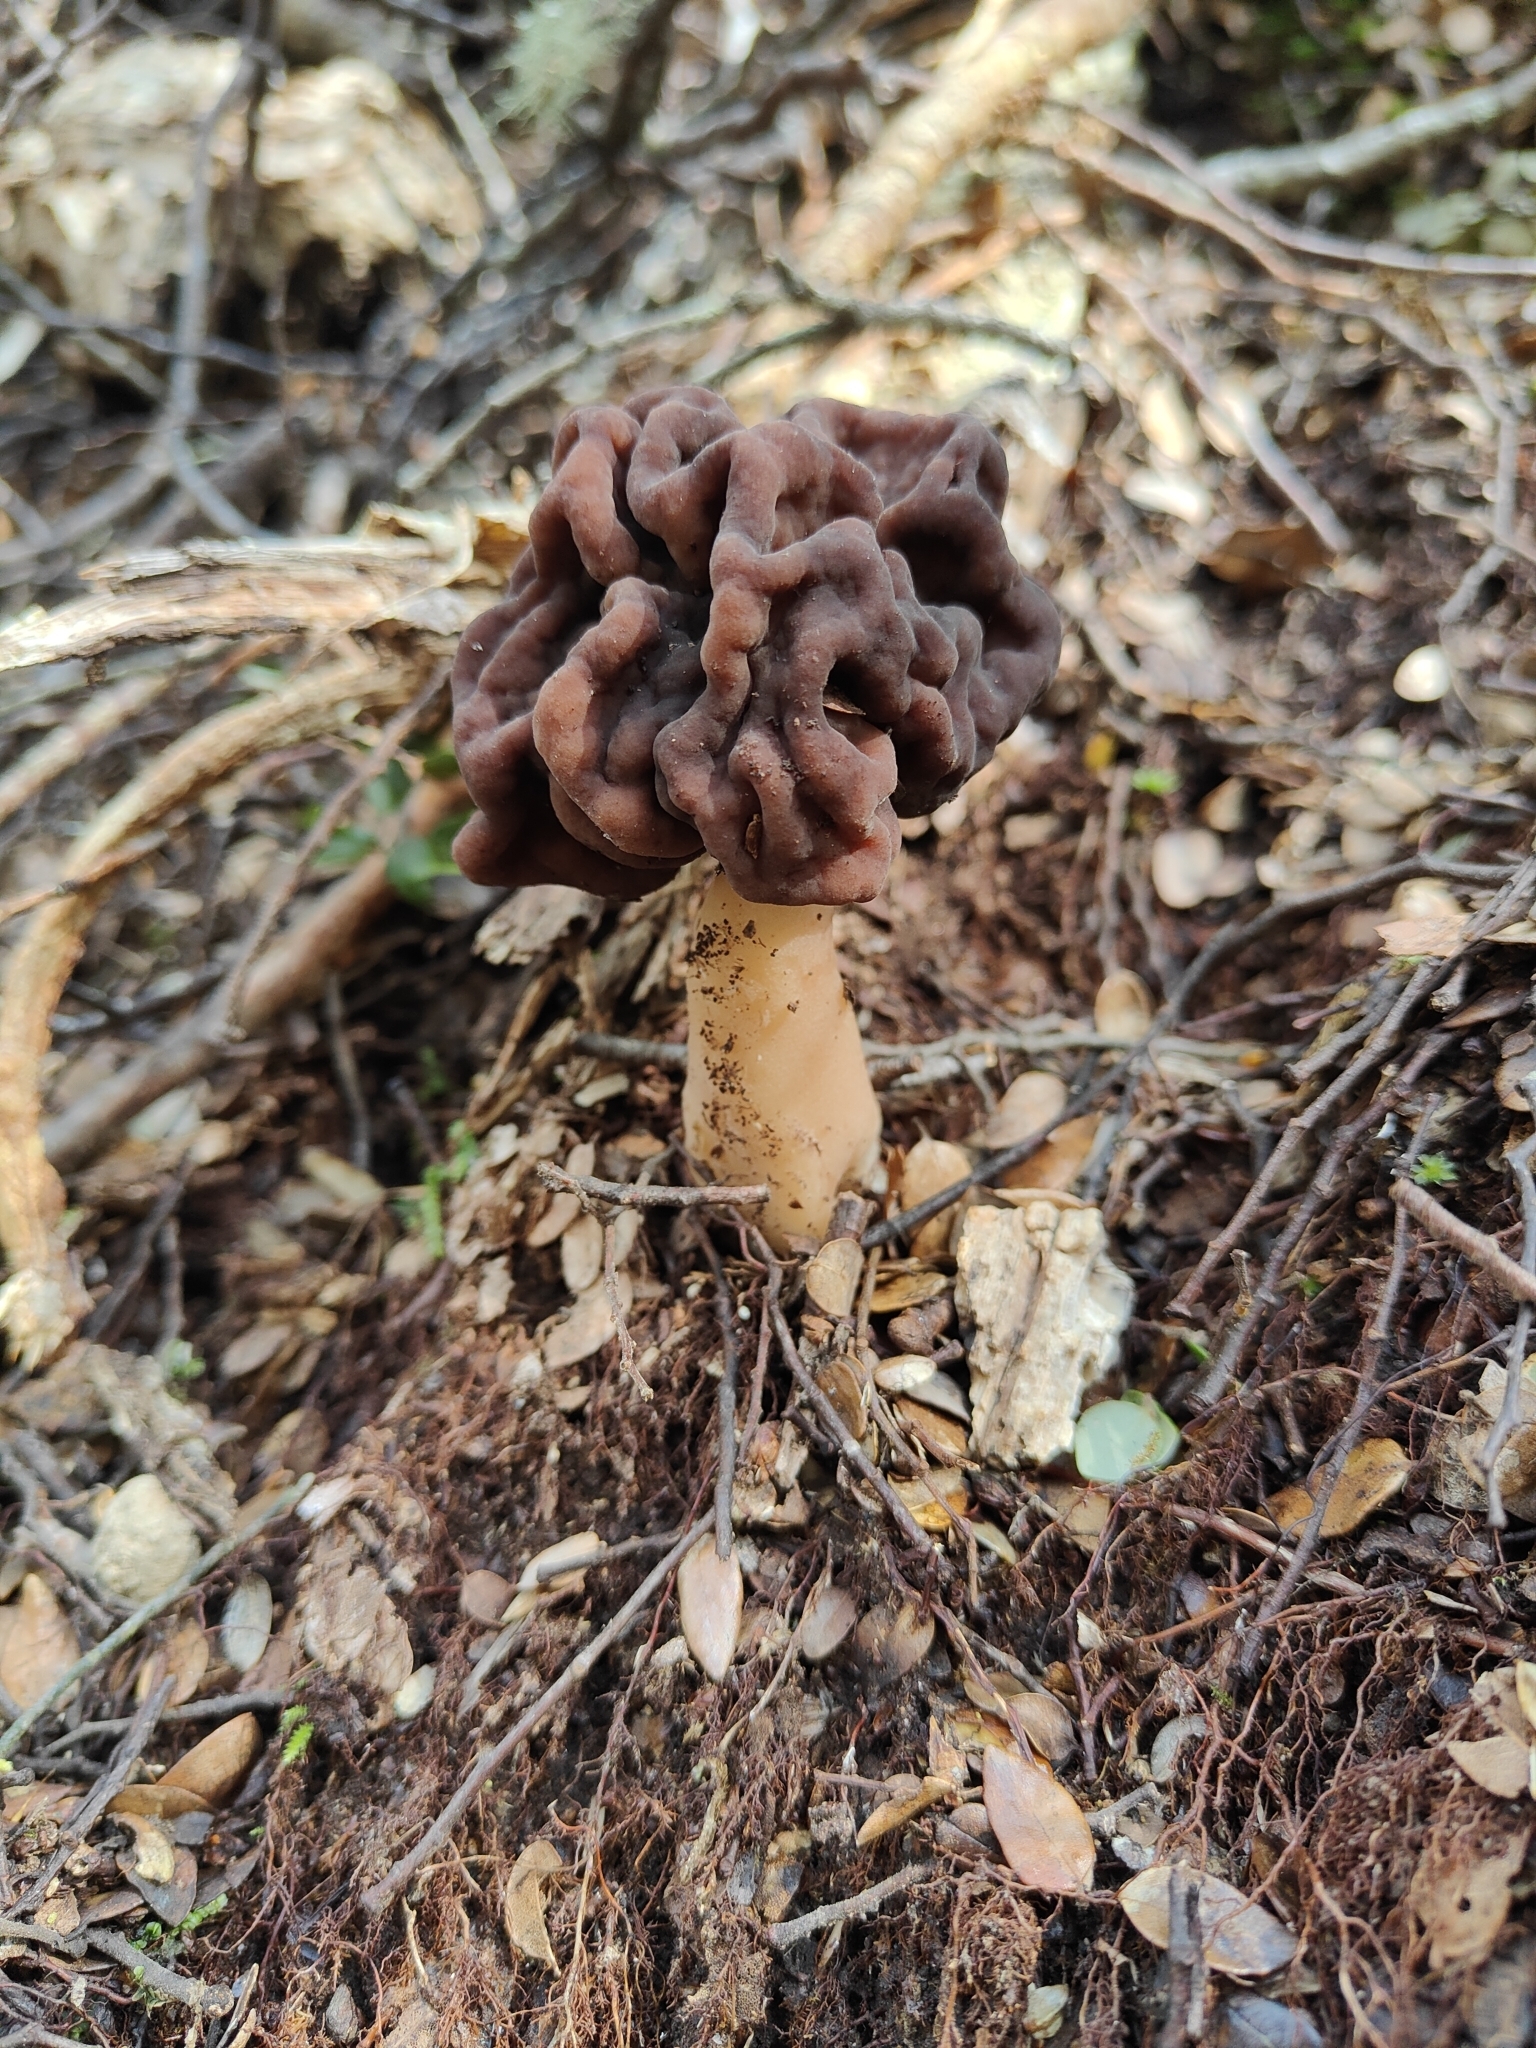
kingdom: Fungi
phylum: Ascomycota
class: Pezizomycetes
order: Pezizales
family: Discinaceae
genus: Gyromitra
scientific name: Gyromitra tasmanica
